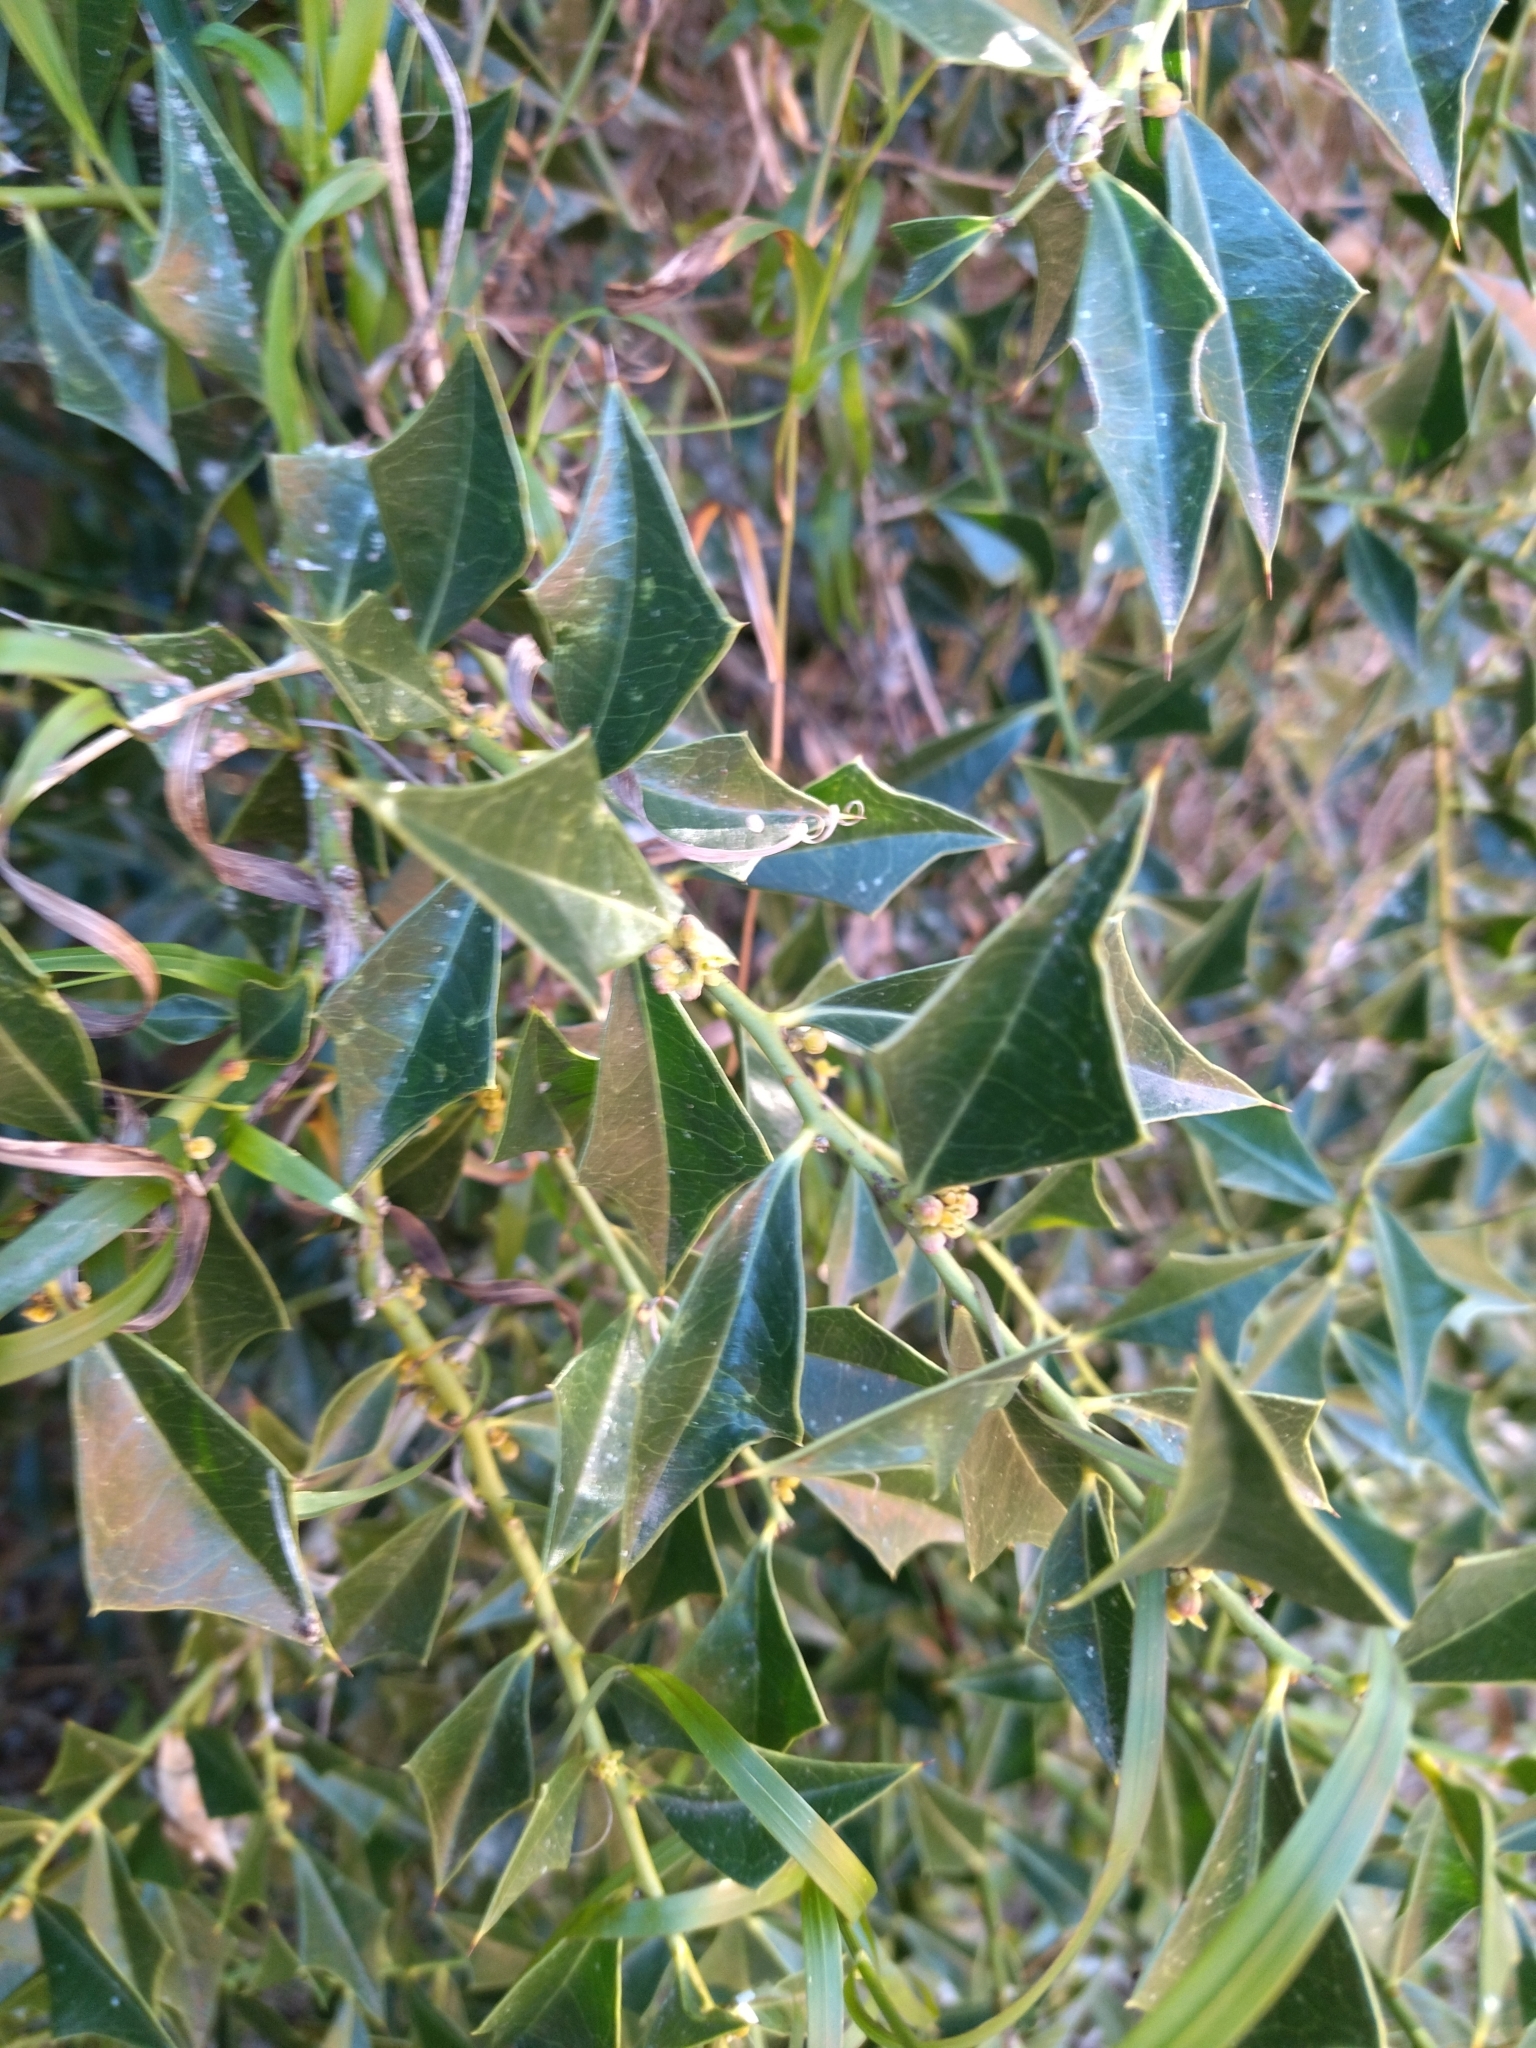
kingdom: Plantae
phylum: Tracheophyta
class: Magnoliopsida
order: Santalales
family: Cervantesiaceae
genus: Jodina
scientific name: Jodina rhombifolia
